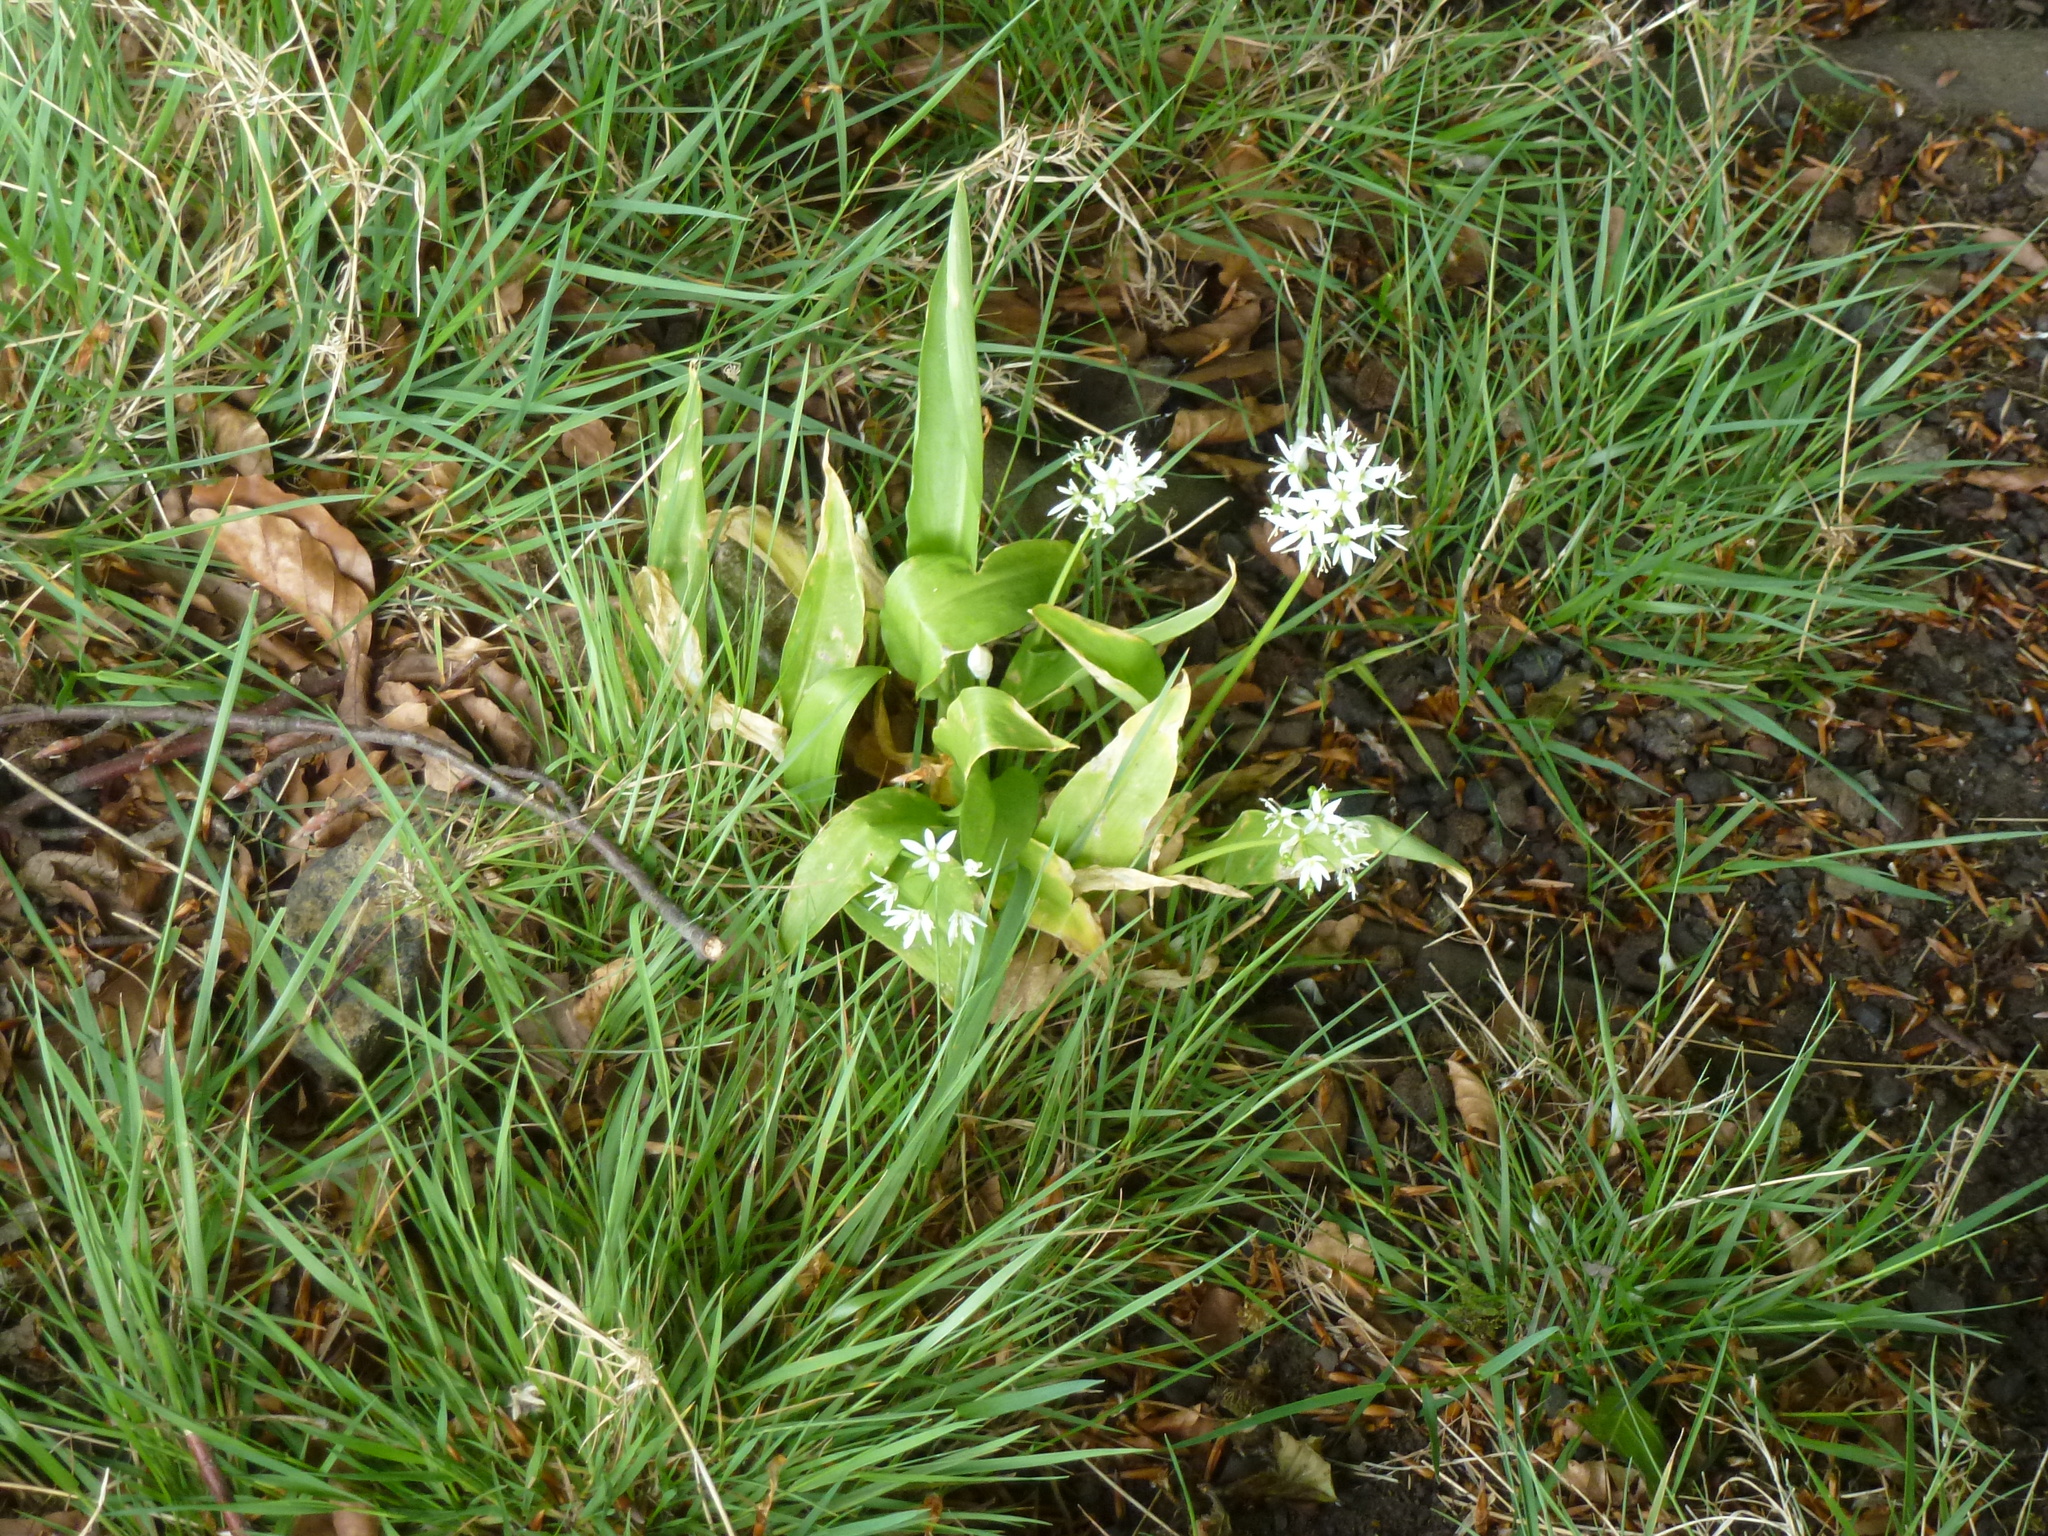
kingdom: Plantae
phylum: Tracheophyta
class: Liliopsida
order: Asparagales
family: Amaryllidaceae
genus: Allium
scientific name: Allium ursinum
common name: Ramsons
